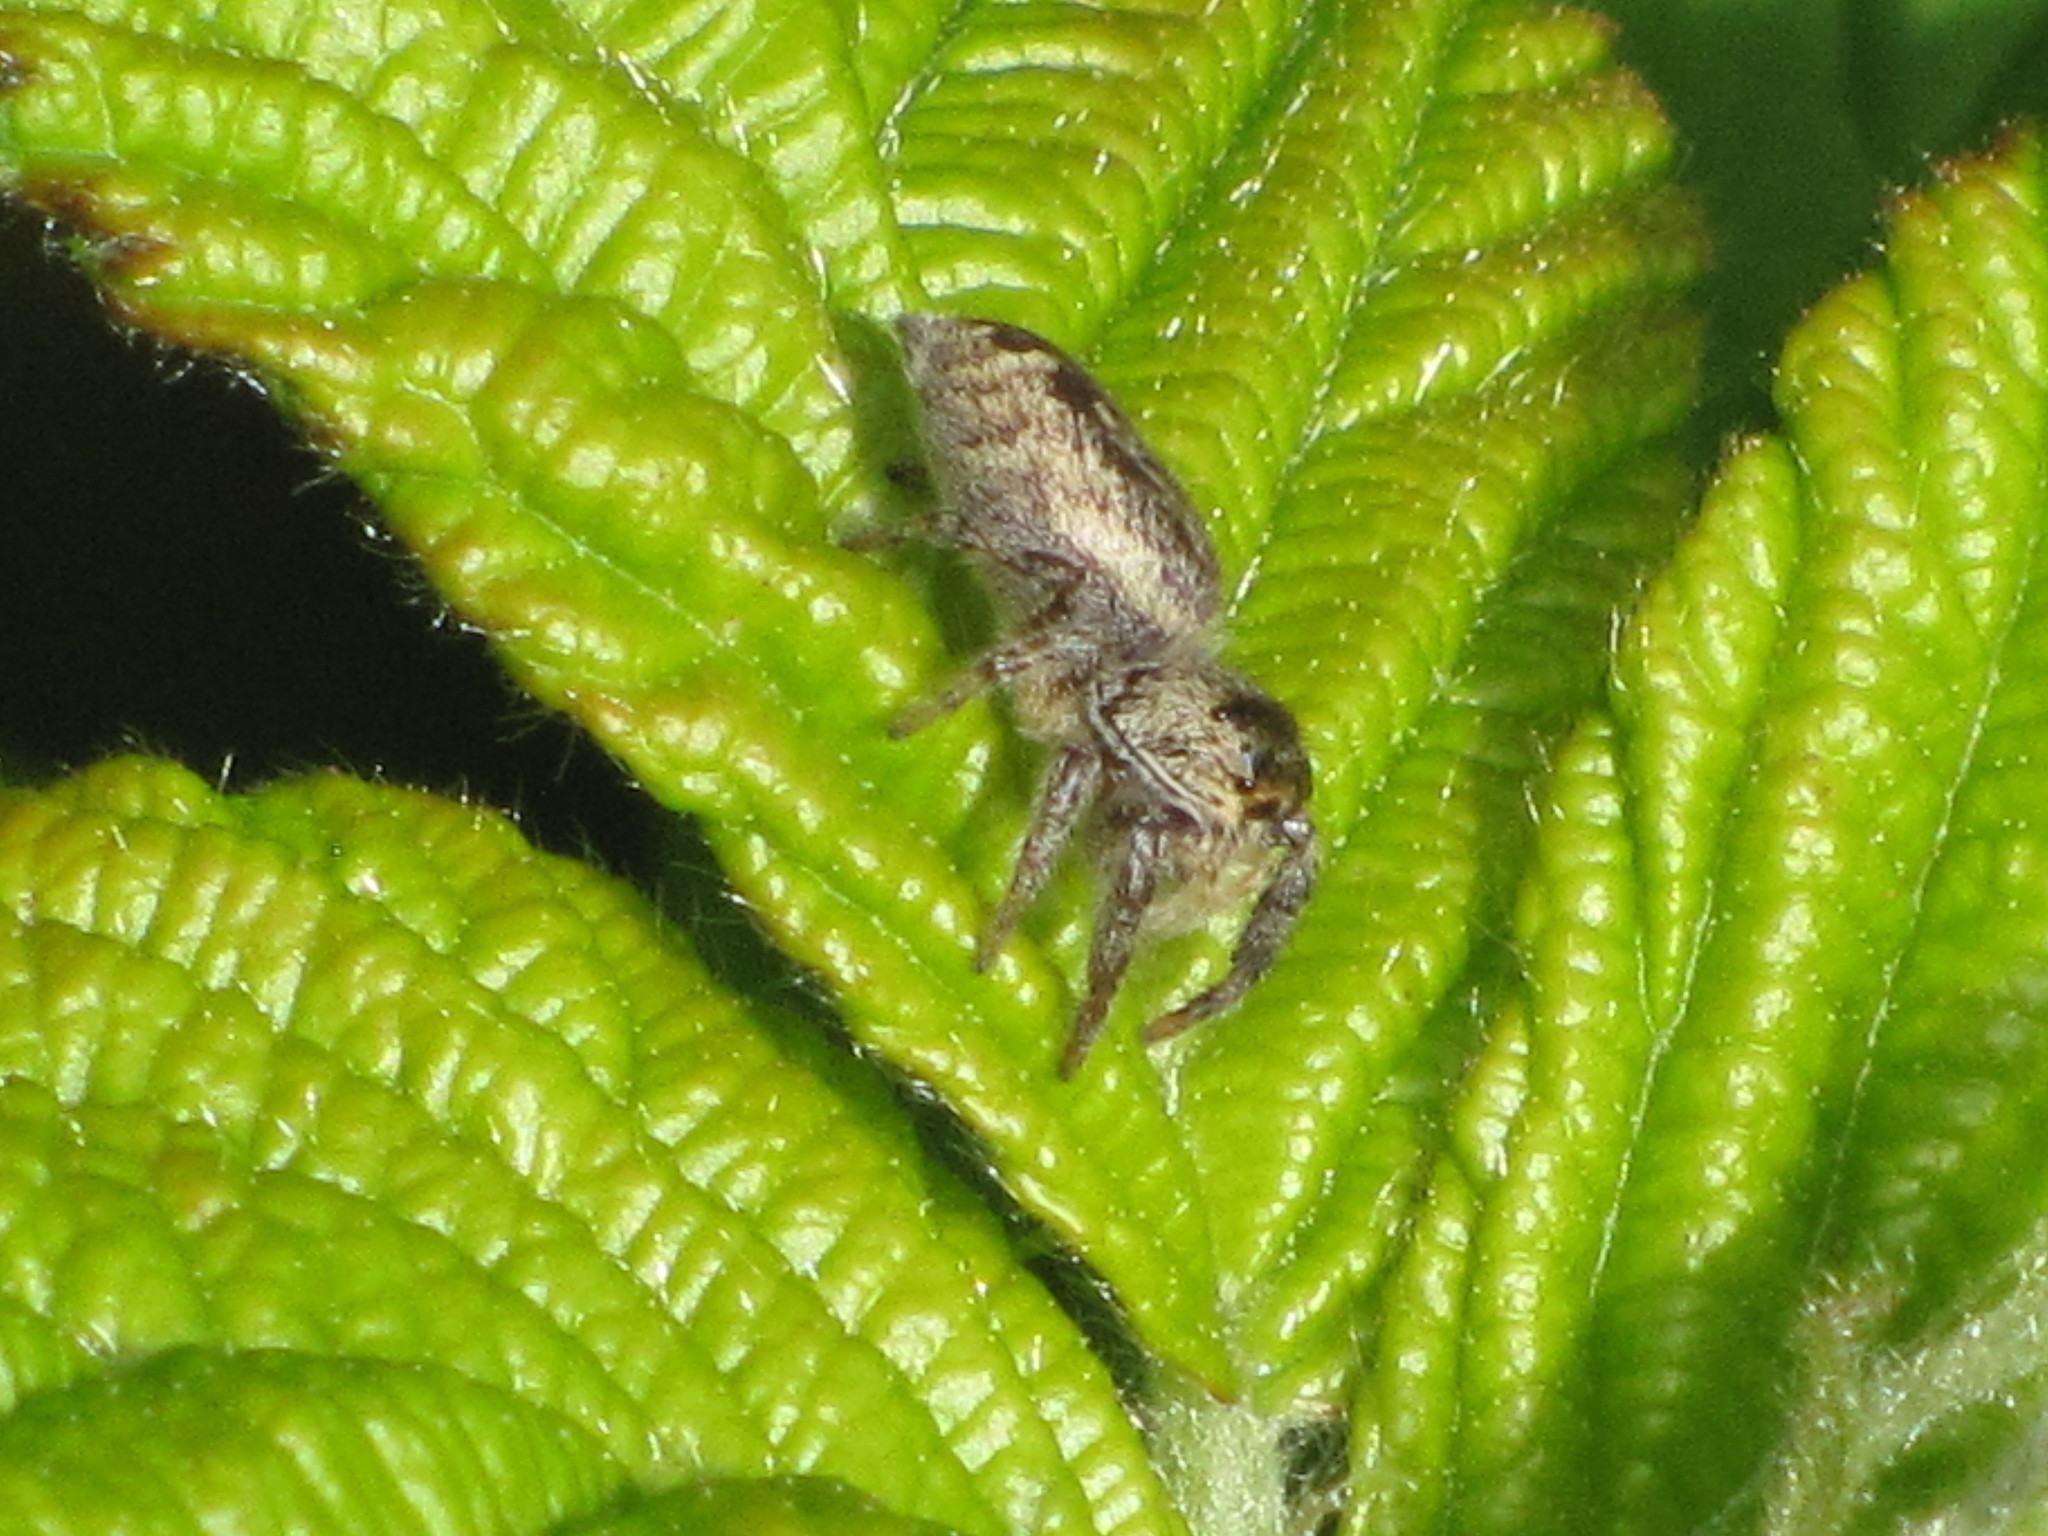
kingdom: Animalia
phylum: Arthropoda
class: Arachnida
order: Araneae
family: Salticidae
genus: Eris
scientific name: Eris militaris
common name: Bronze jumper
